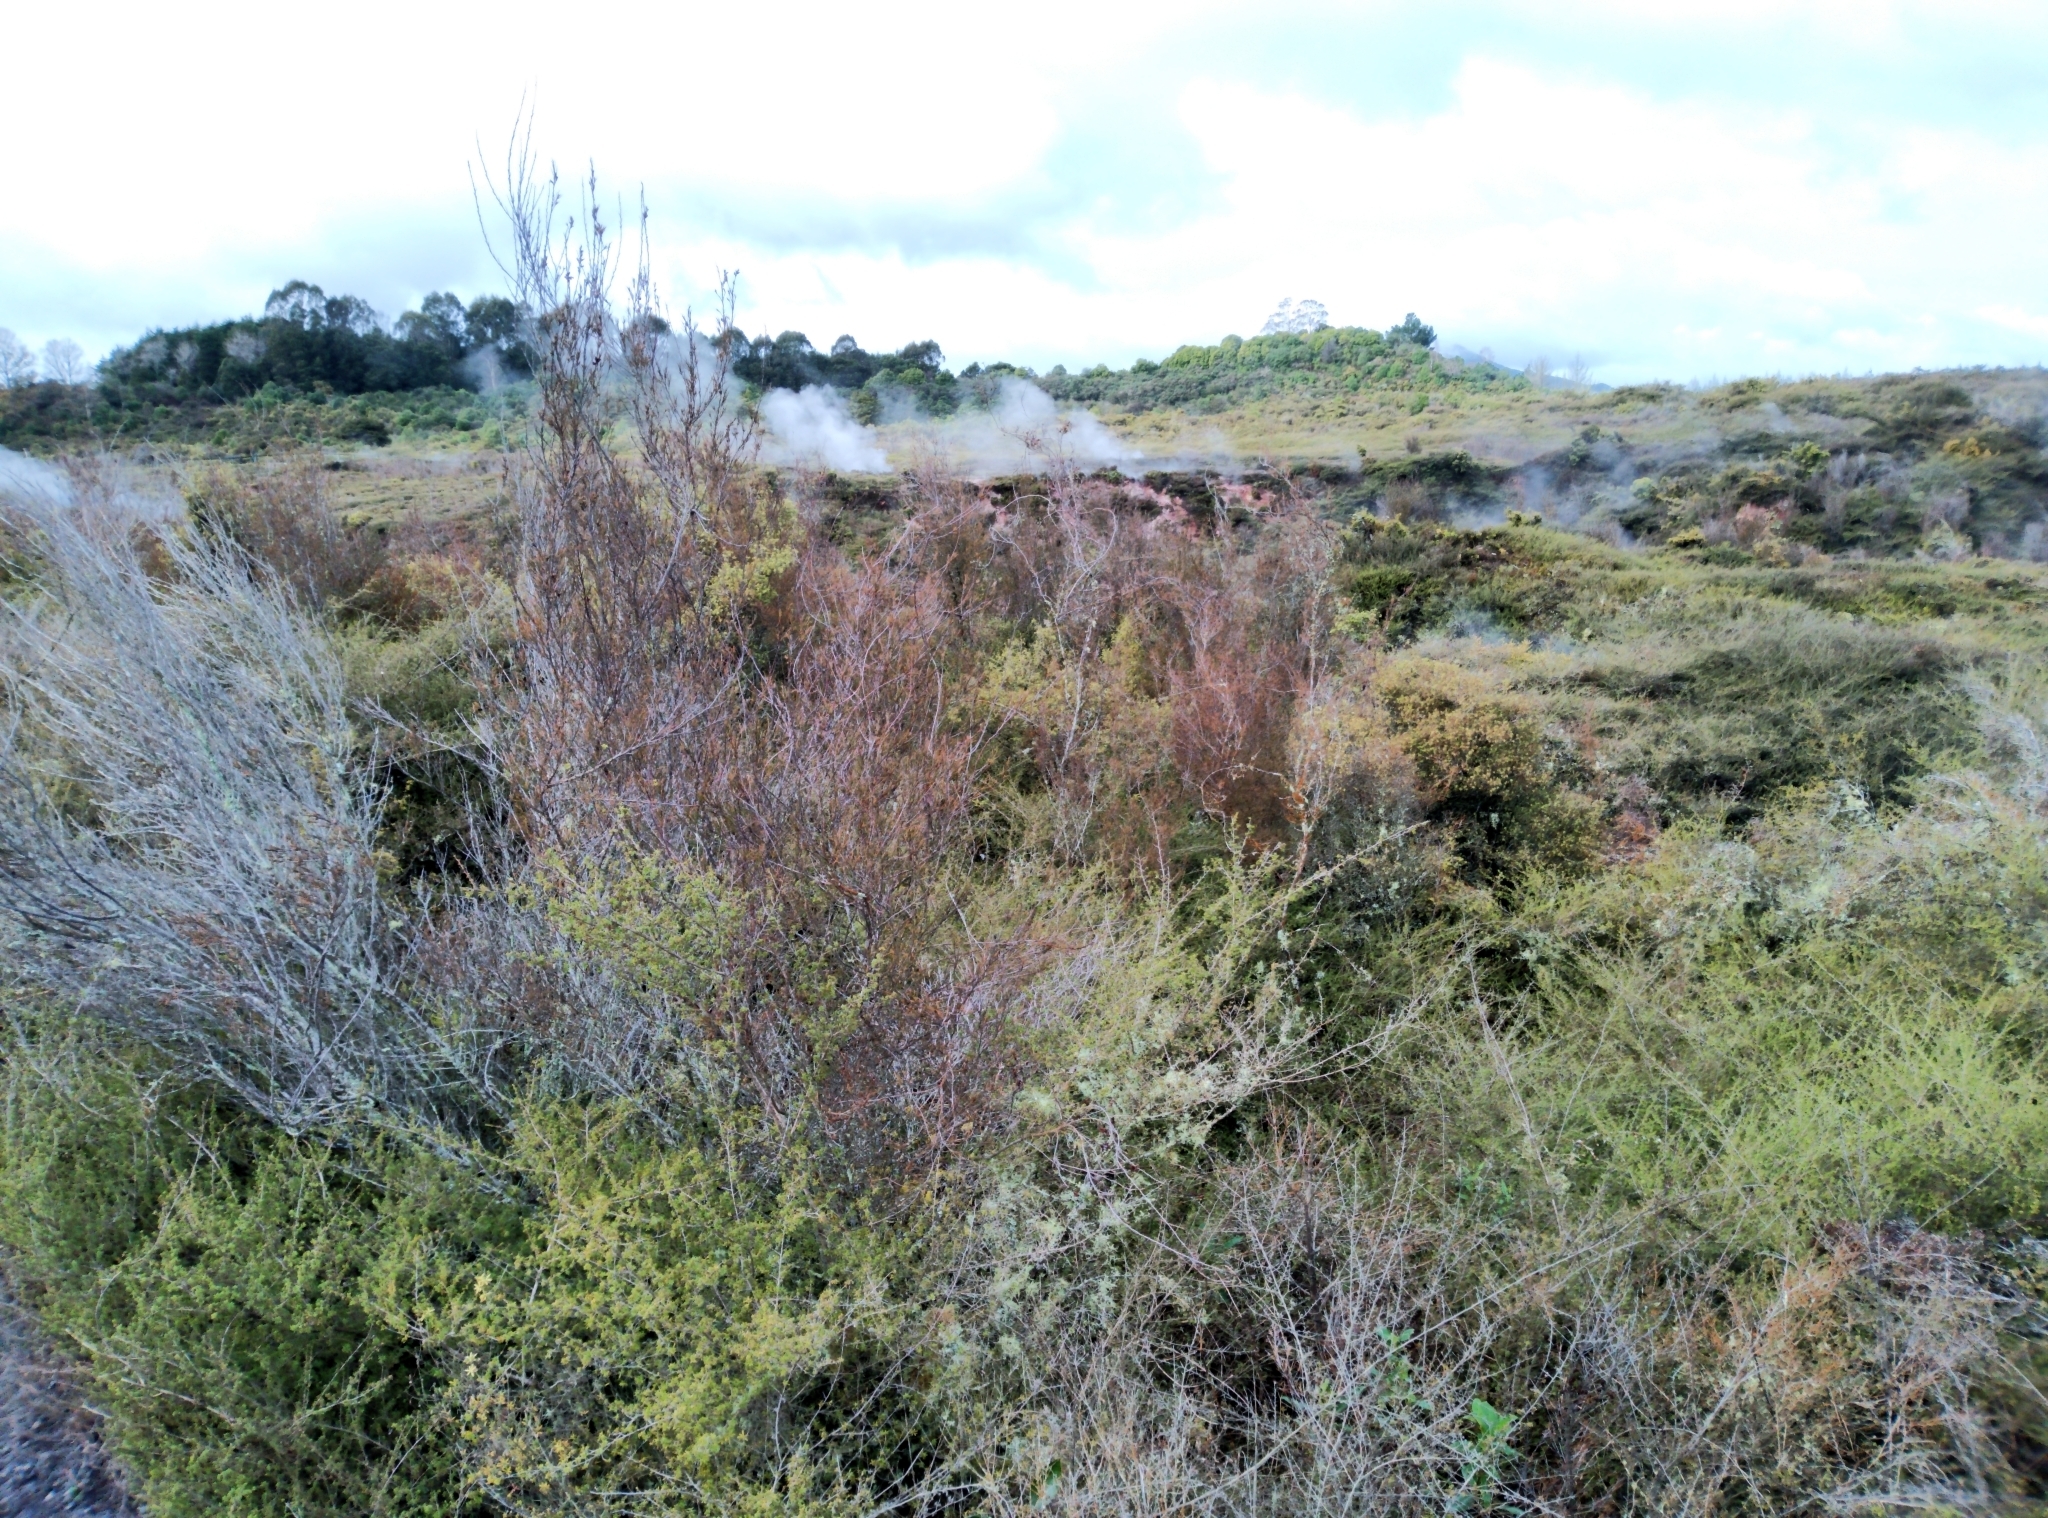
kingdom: Plantae
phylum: Tracheophyta
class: Magnoliopsida
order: Ericales
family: Ericaceae
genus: Dracophyllum
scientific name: Dracophyllum subulatum
